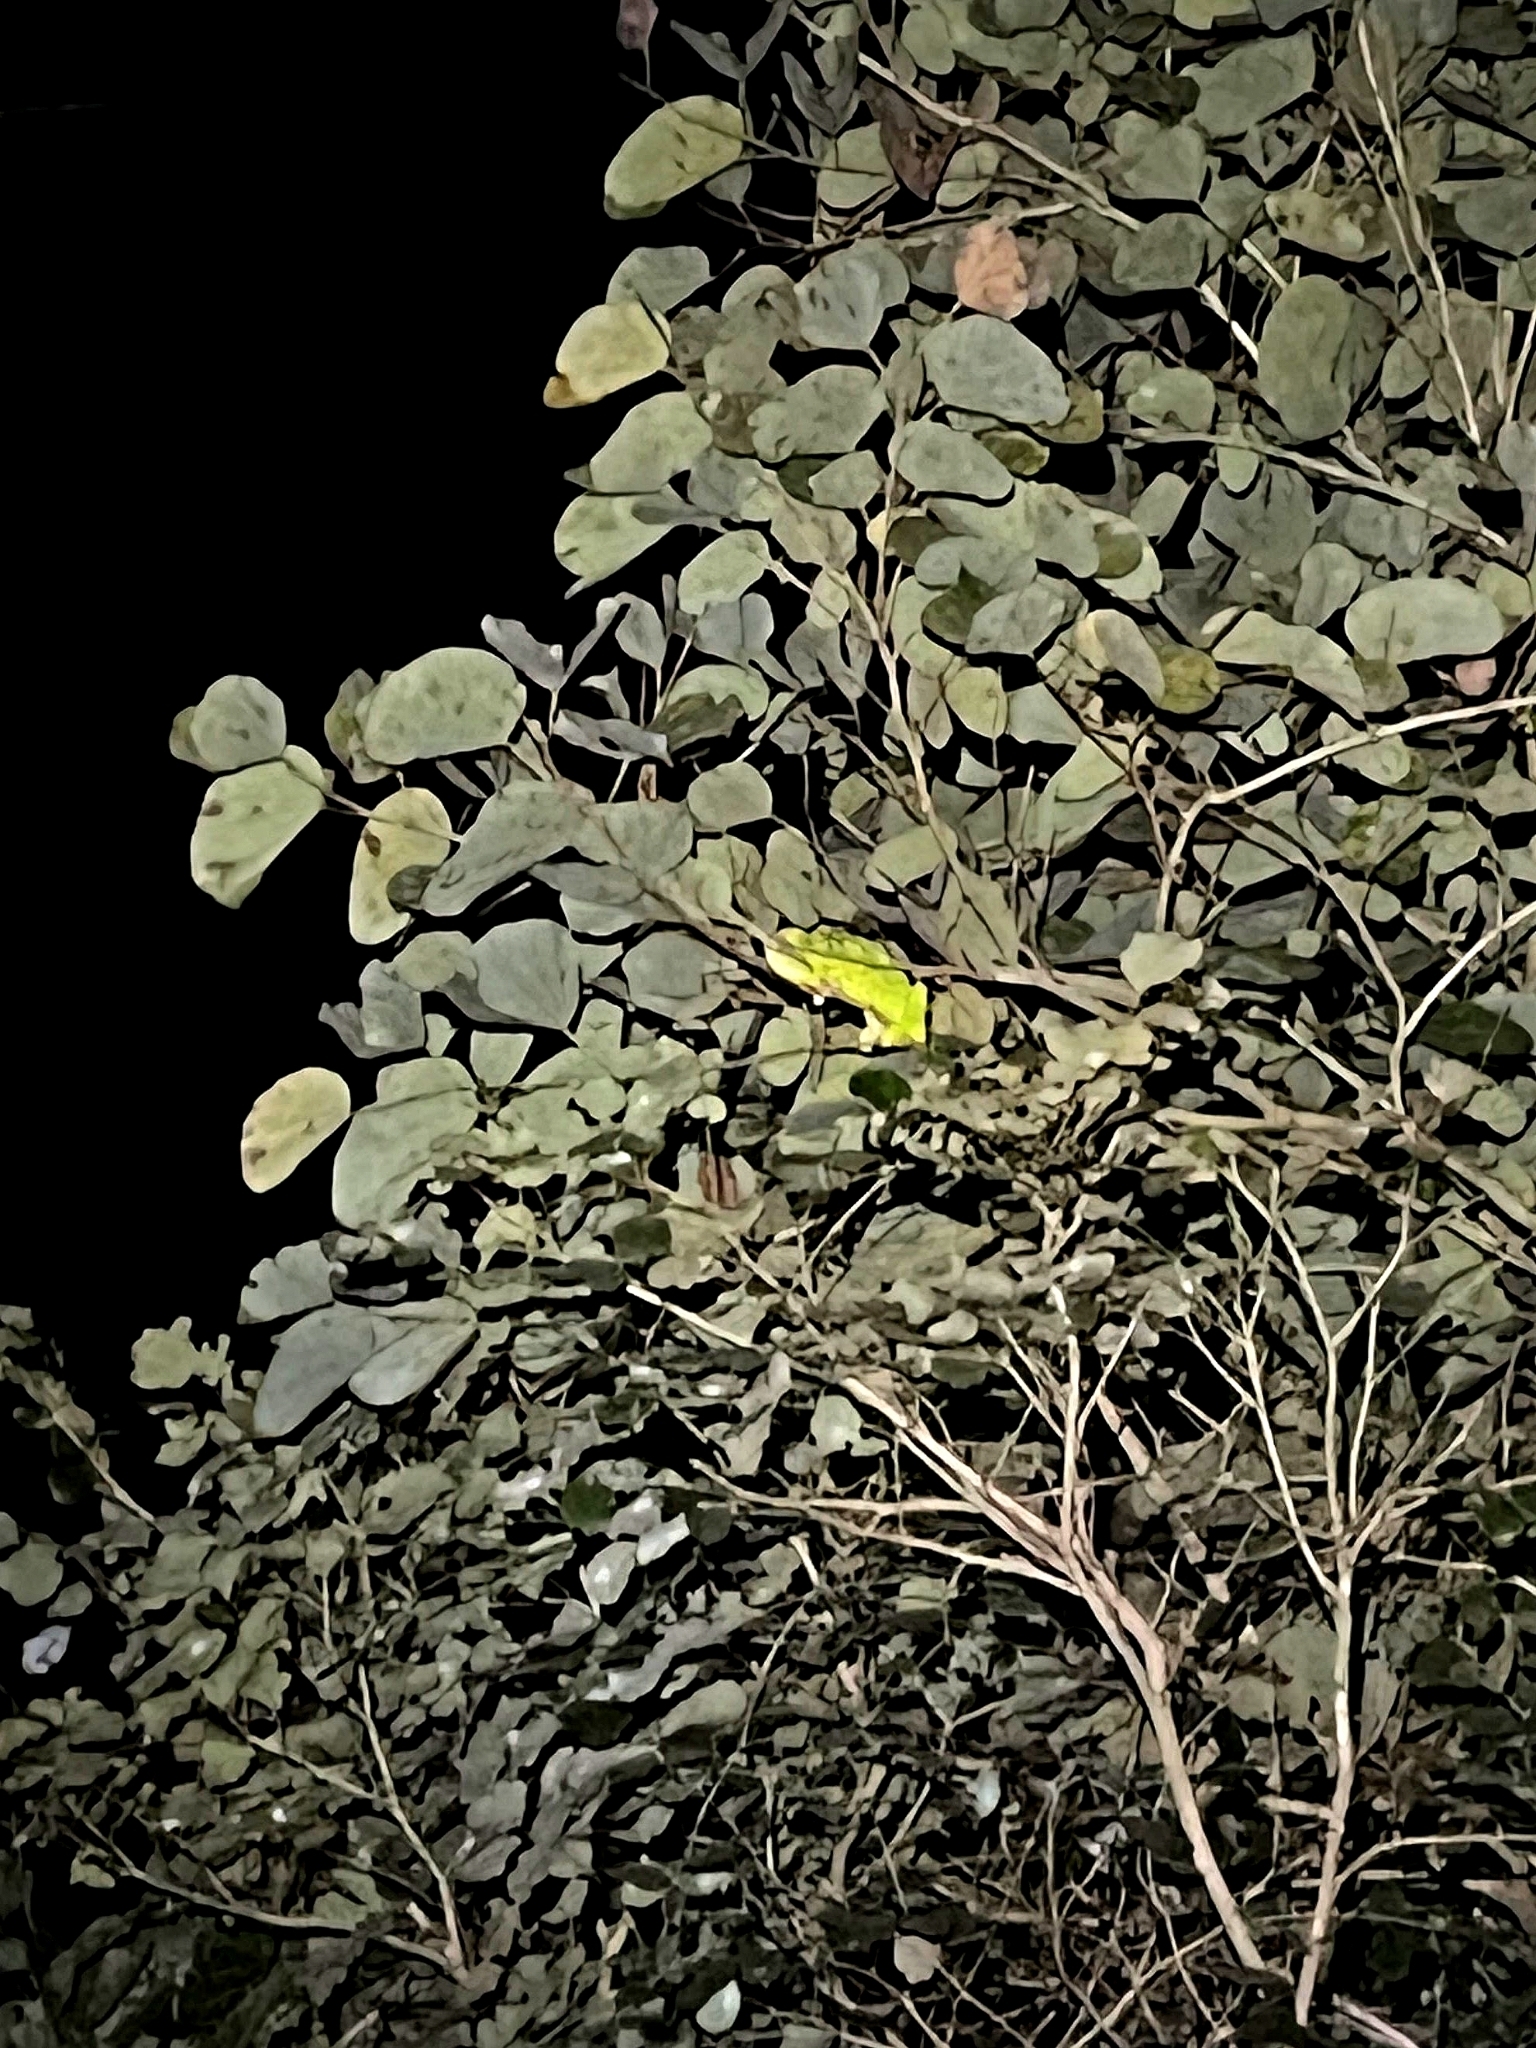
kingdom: Animalia
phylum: Chordata
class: Squamata
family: Chamaeleonidae
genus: Chamaeleo
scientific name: Chamaeleo zeylanicus
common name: Indian chameleon
